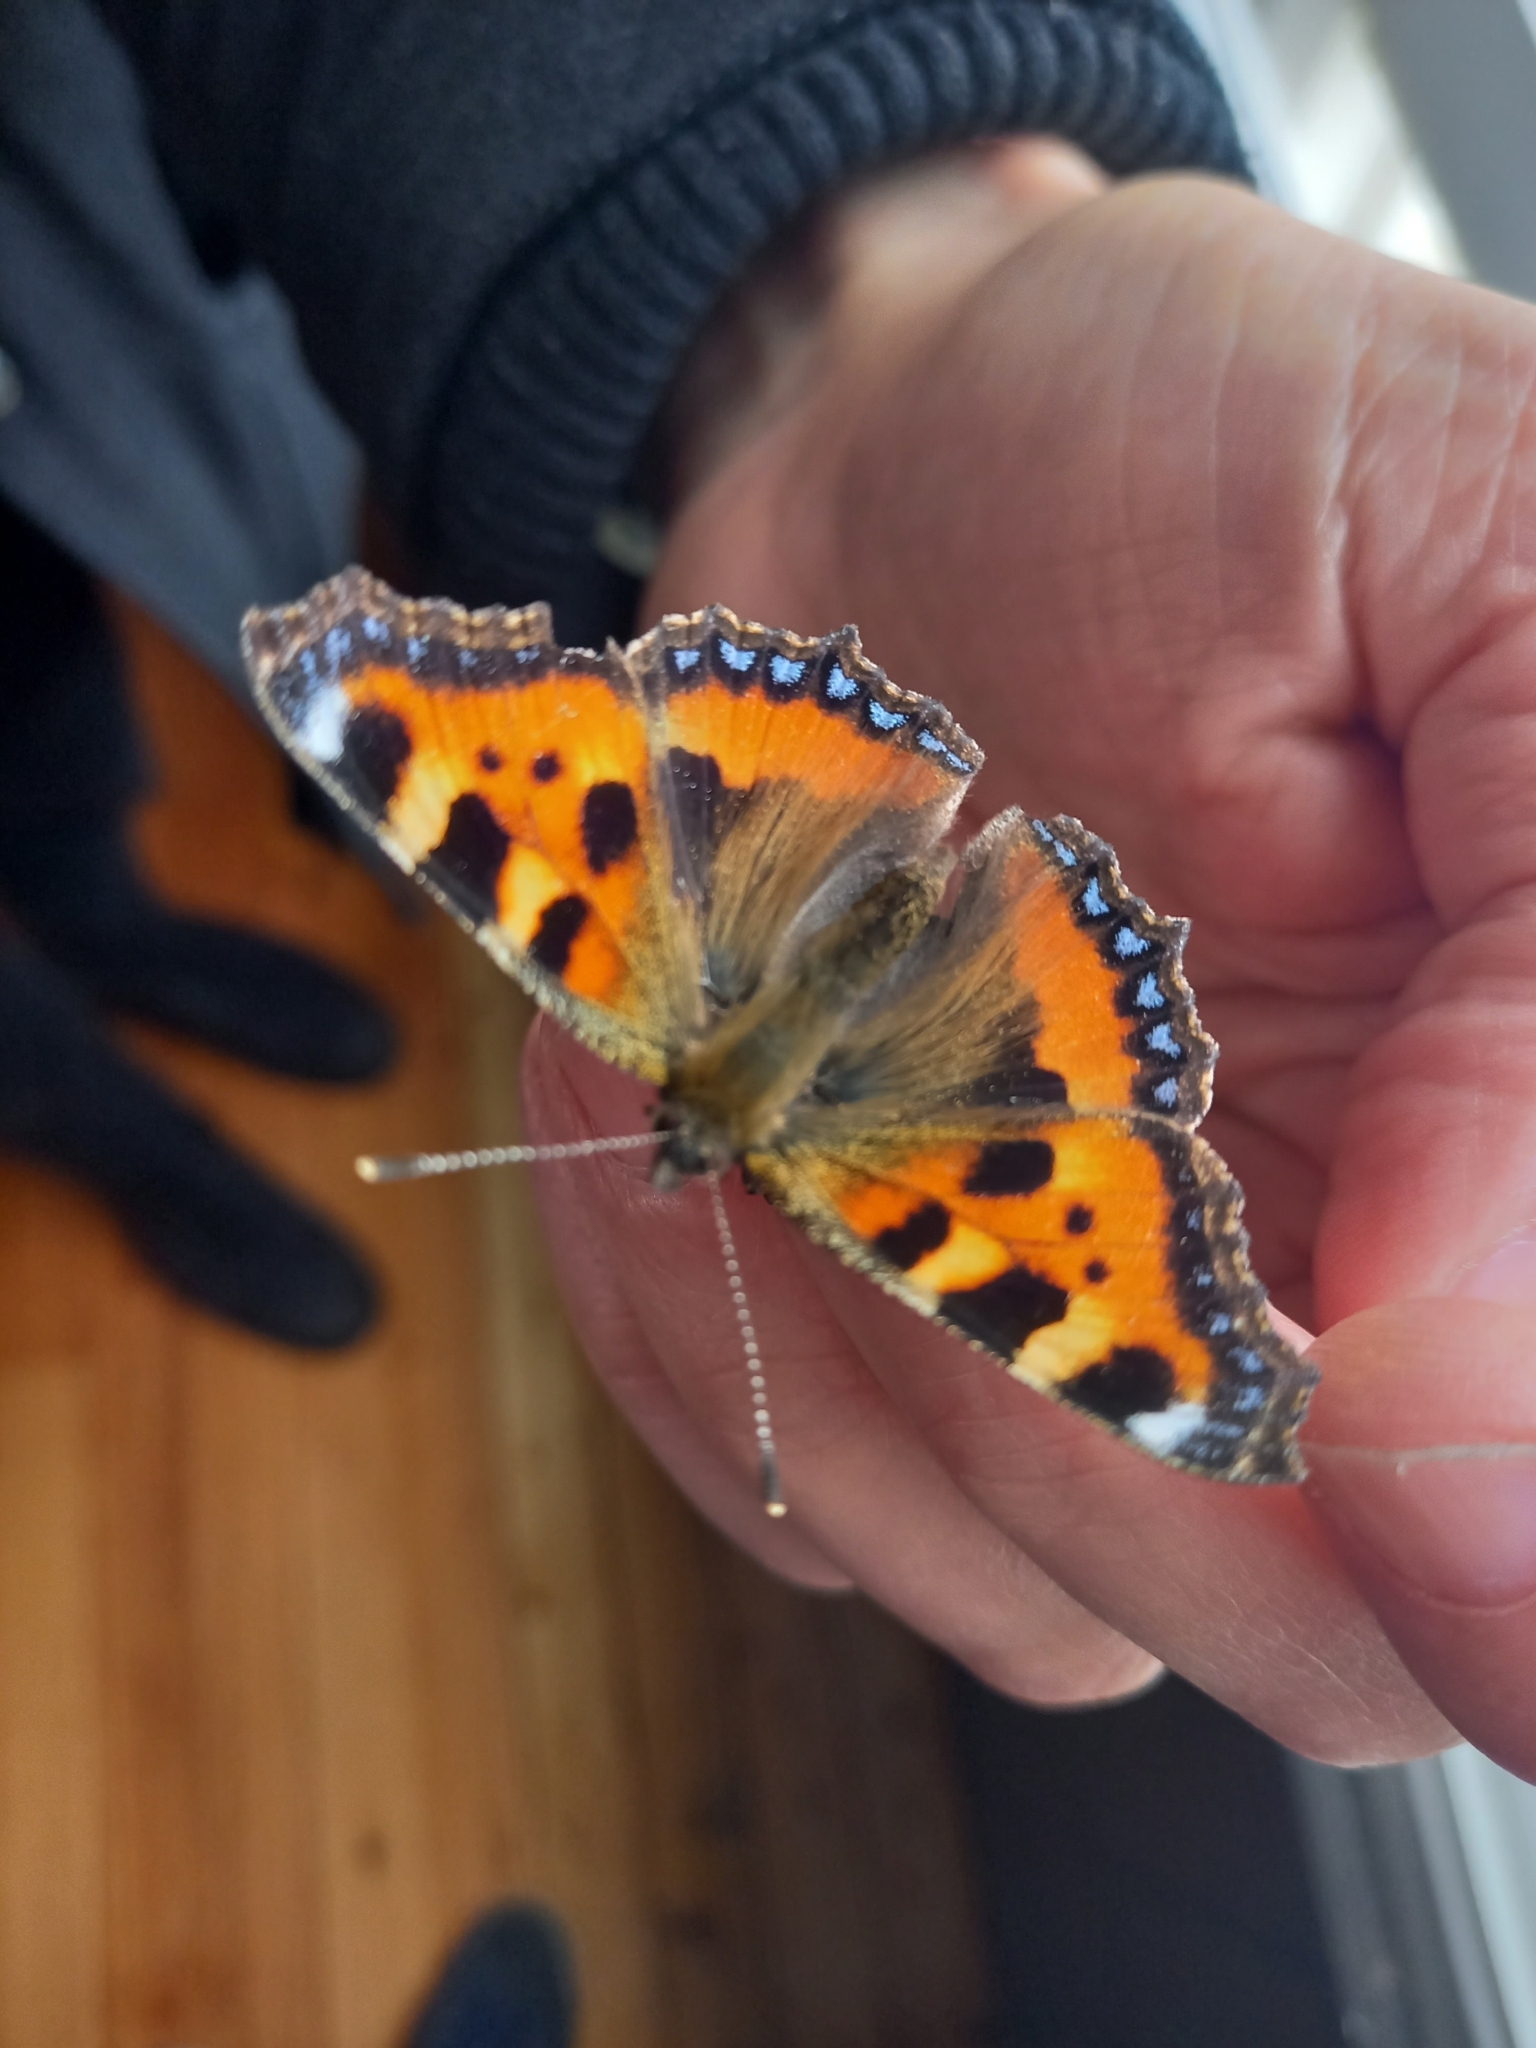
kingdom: Animalia
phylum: Arthropoda
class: Insecta
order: Lepidoptera
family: Nymphalidae
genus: Aglais
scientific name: Aglais urticae
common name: Small tortoiseshell
